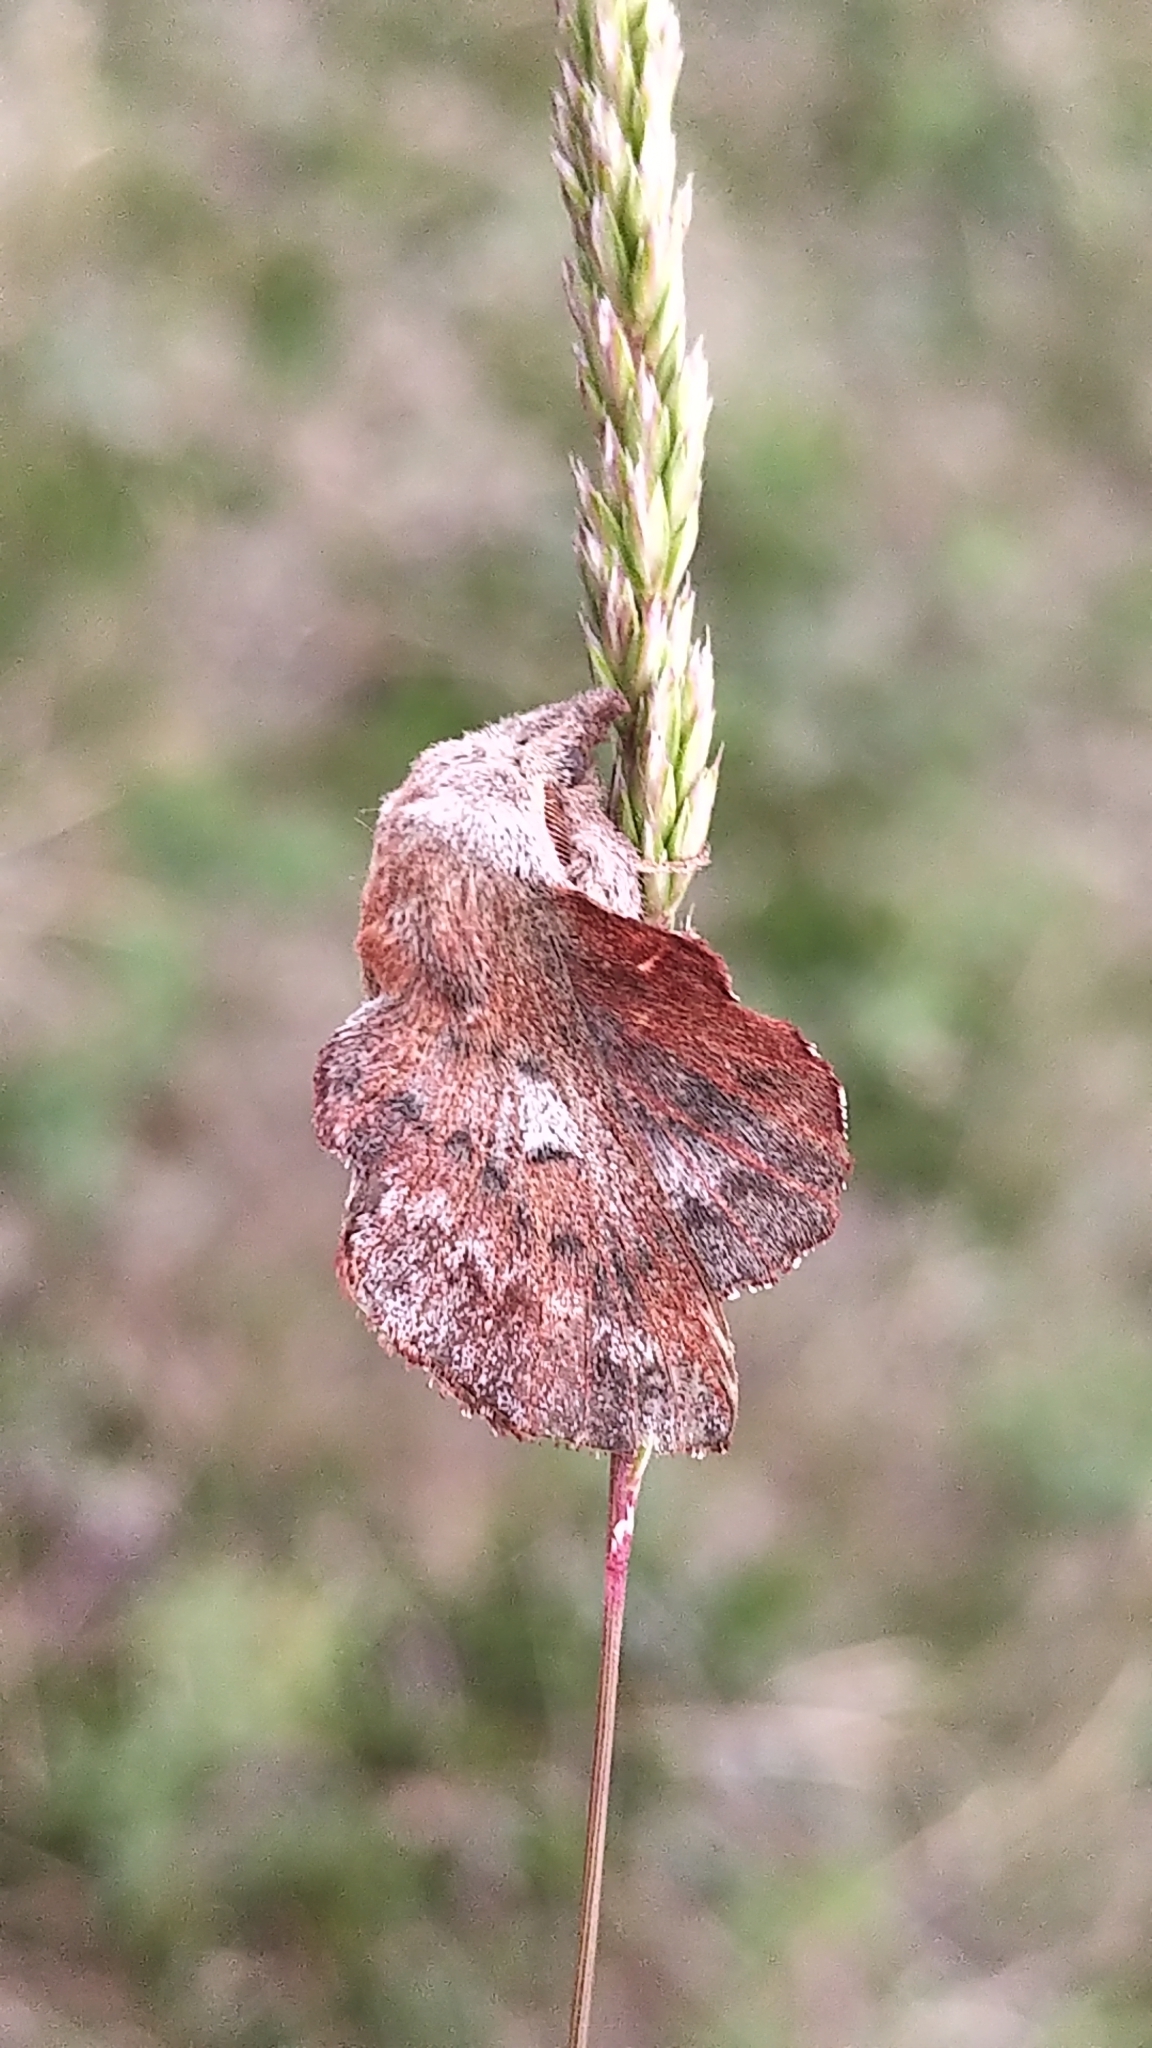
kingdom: Animalia
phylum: Arthropoda
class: Insecta
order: Lepidoptera
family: Lasiocampidae
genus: Phyllodesma
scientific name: Phyllodesma americana
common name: American lappet moth
